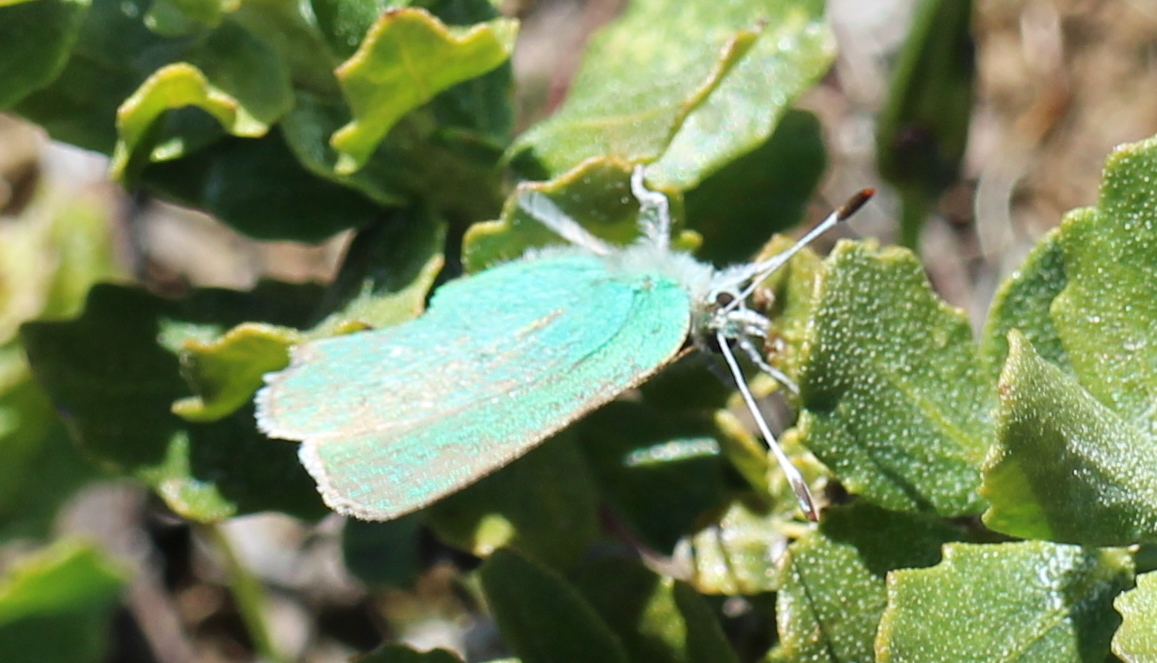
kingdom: Animalia
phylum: Arthropoda
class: Insecta
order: Lepidoptera
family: Lycaenidae
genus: Callophrys
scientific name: Callophrys viridis
